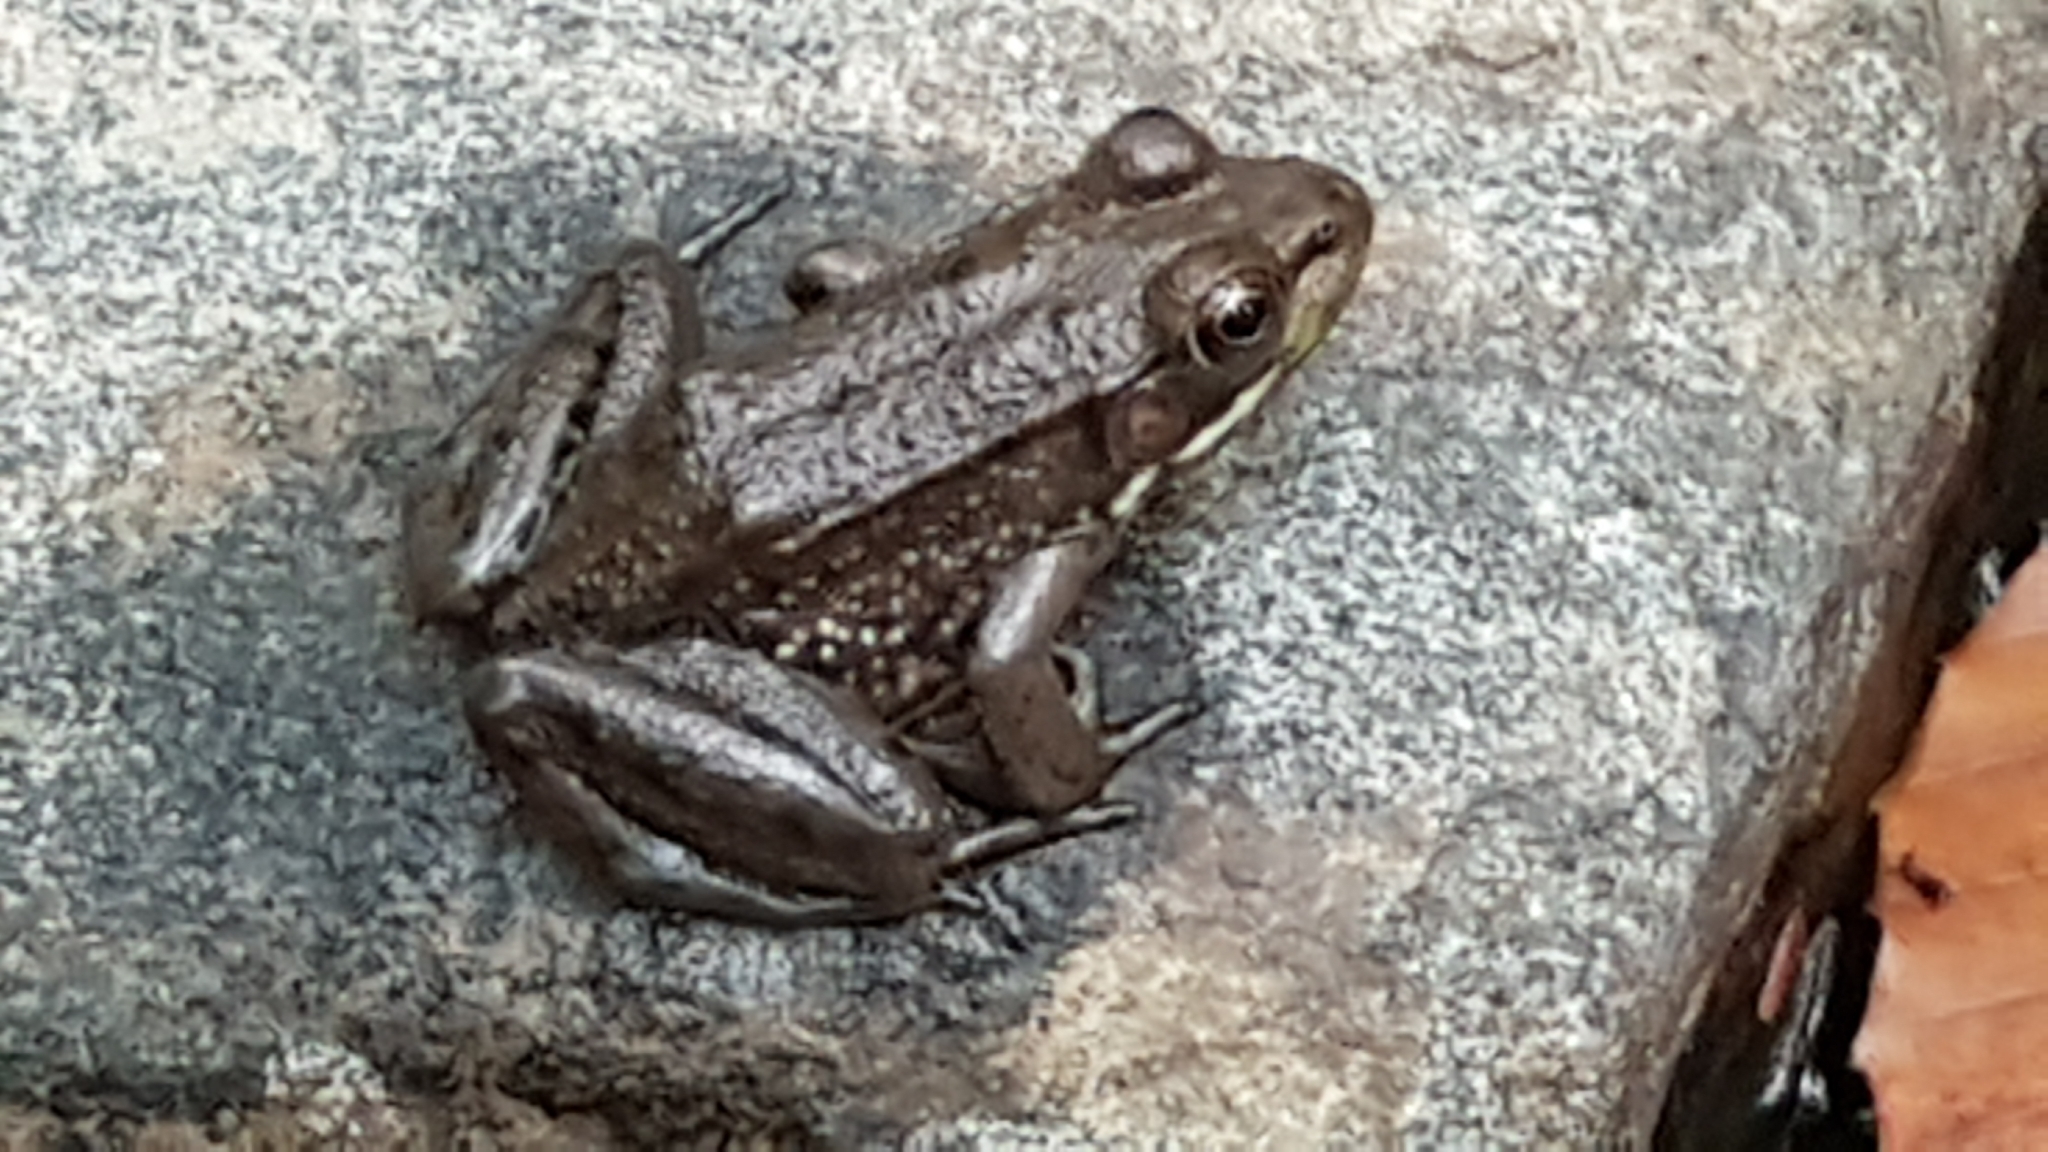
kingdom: Animalia
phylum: Chordata
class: Amphibia
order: Anura
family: Ranidae
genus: Lithobates
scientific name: Lithobates clamitans
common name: Green frog
